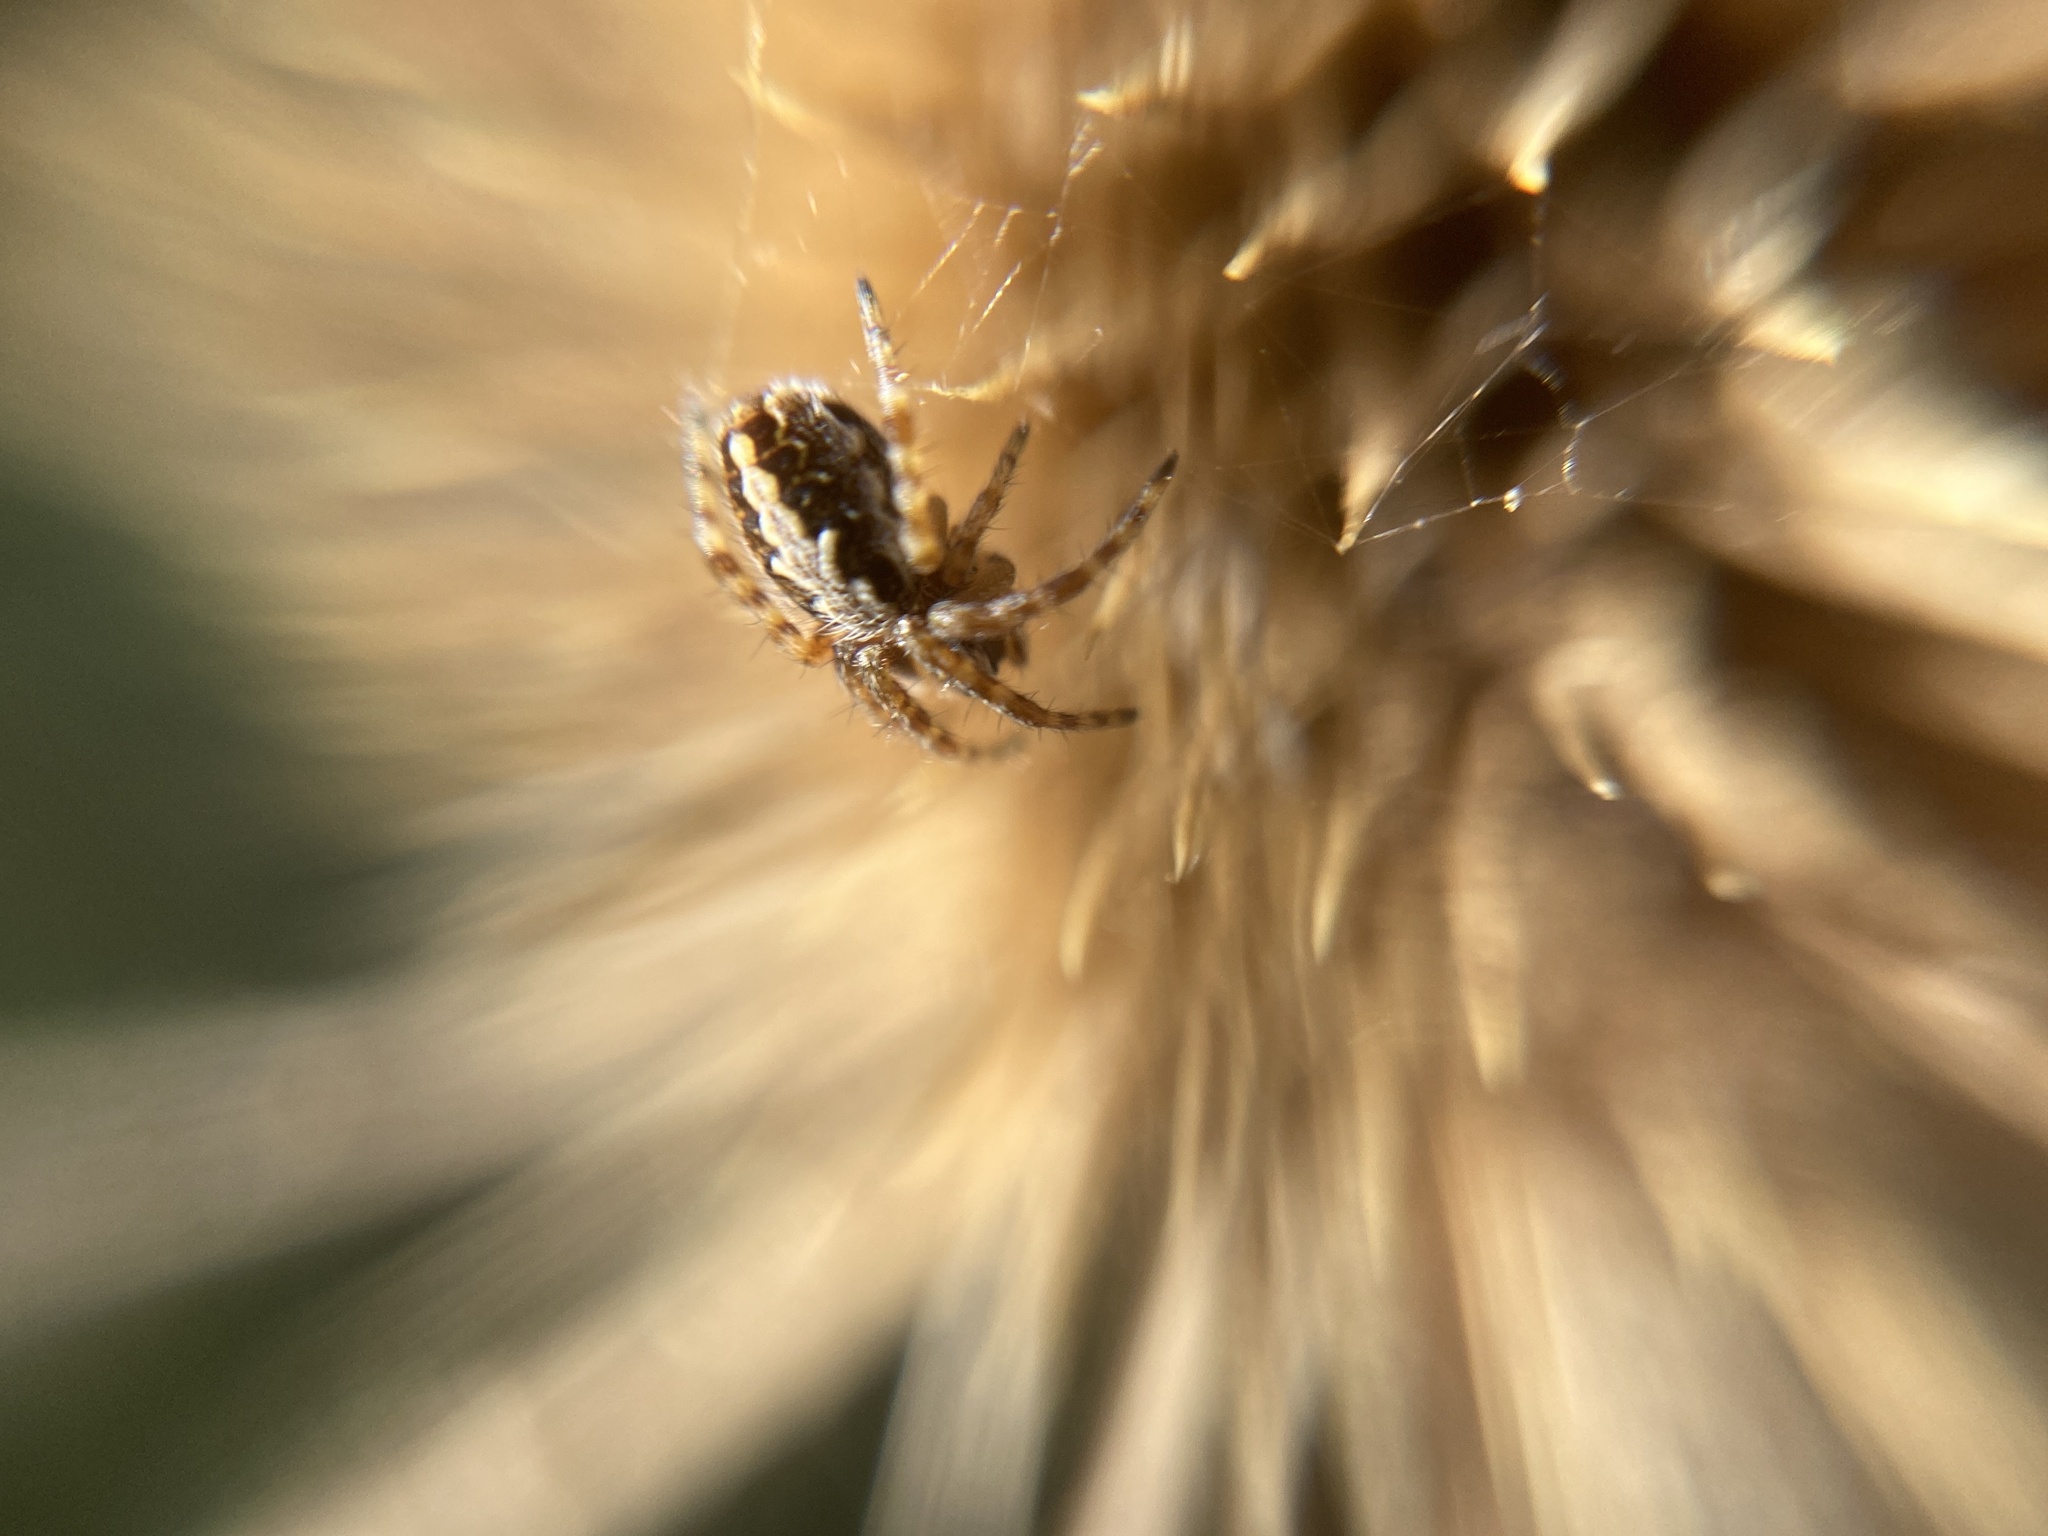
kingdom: Animalia
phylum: Arthropoda
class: Arachnida
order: Araneae
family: Araneidae
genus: Aculepeira
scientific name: Aculepeira ceropegia
